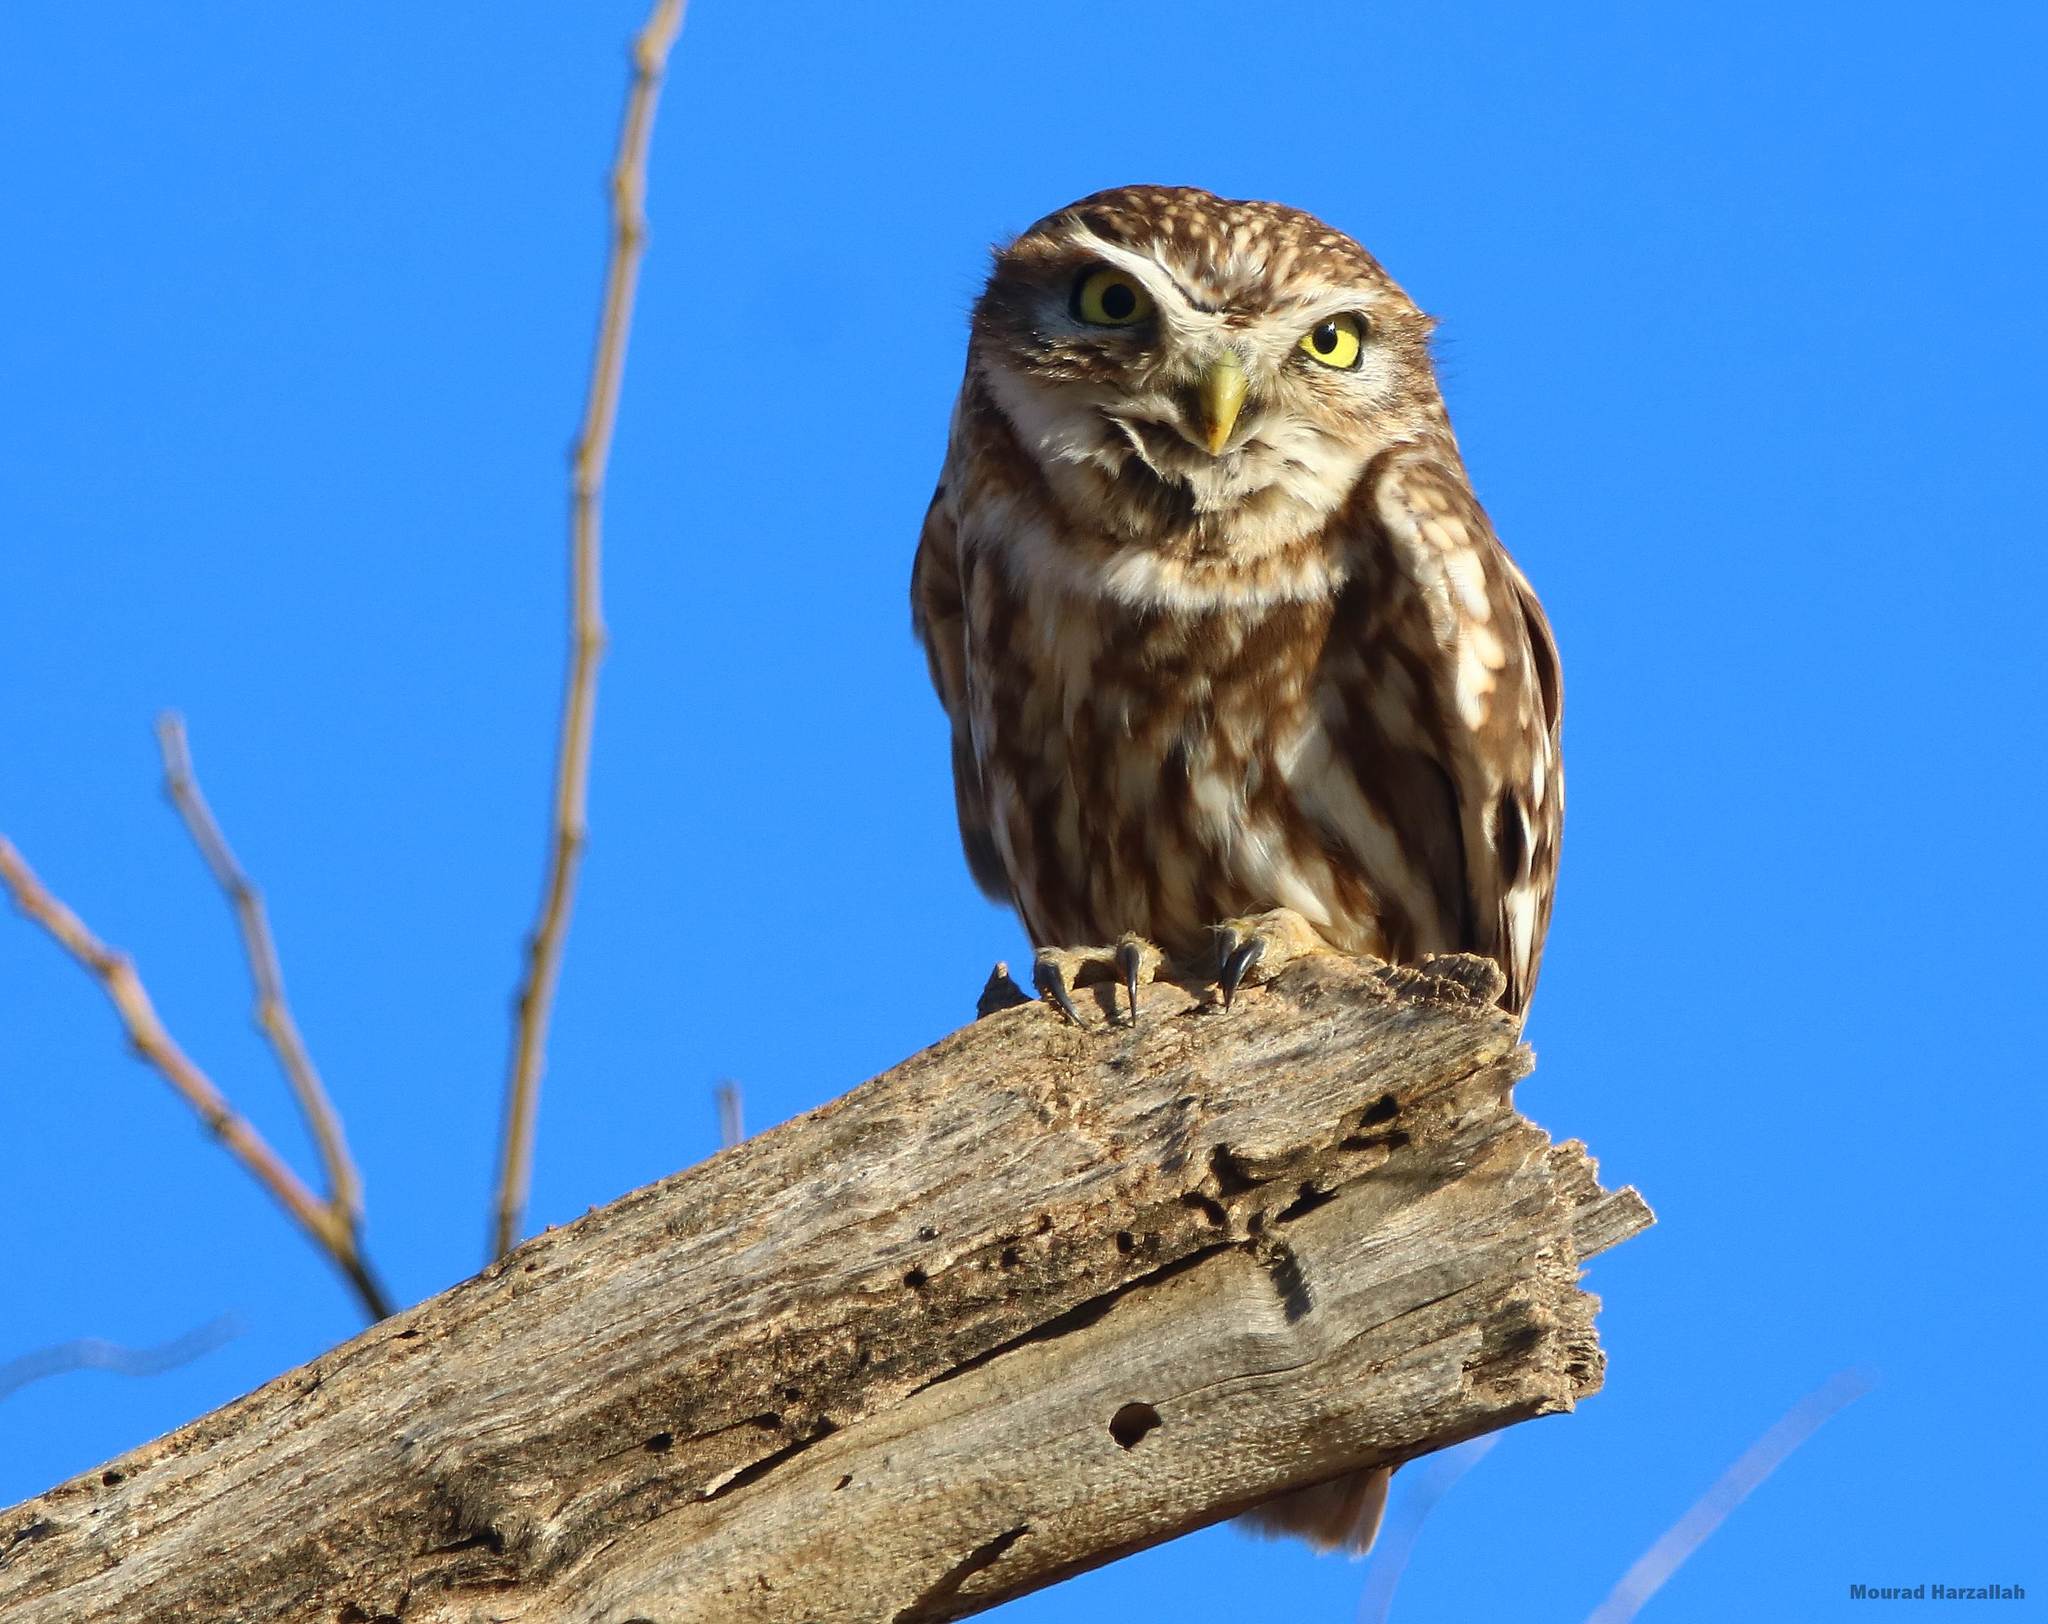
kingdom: Animalia
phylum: Chordata
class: Aves
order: Strigiformes
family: Strigidae
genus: Athene
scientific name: Athene noctua
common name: Little owl
